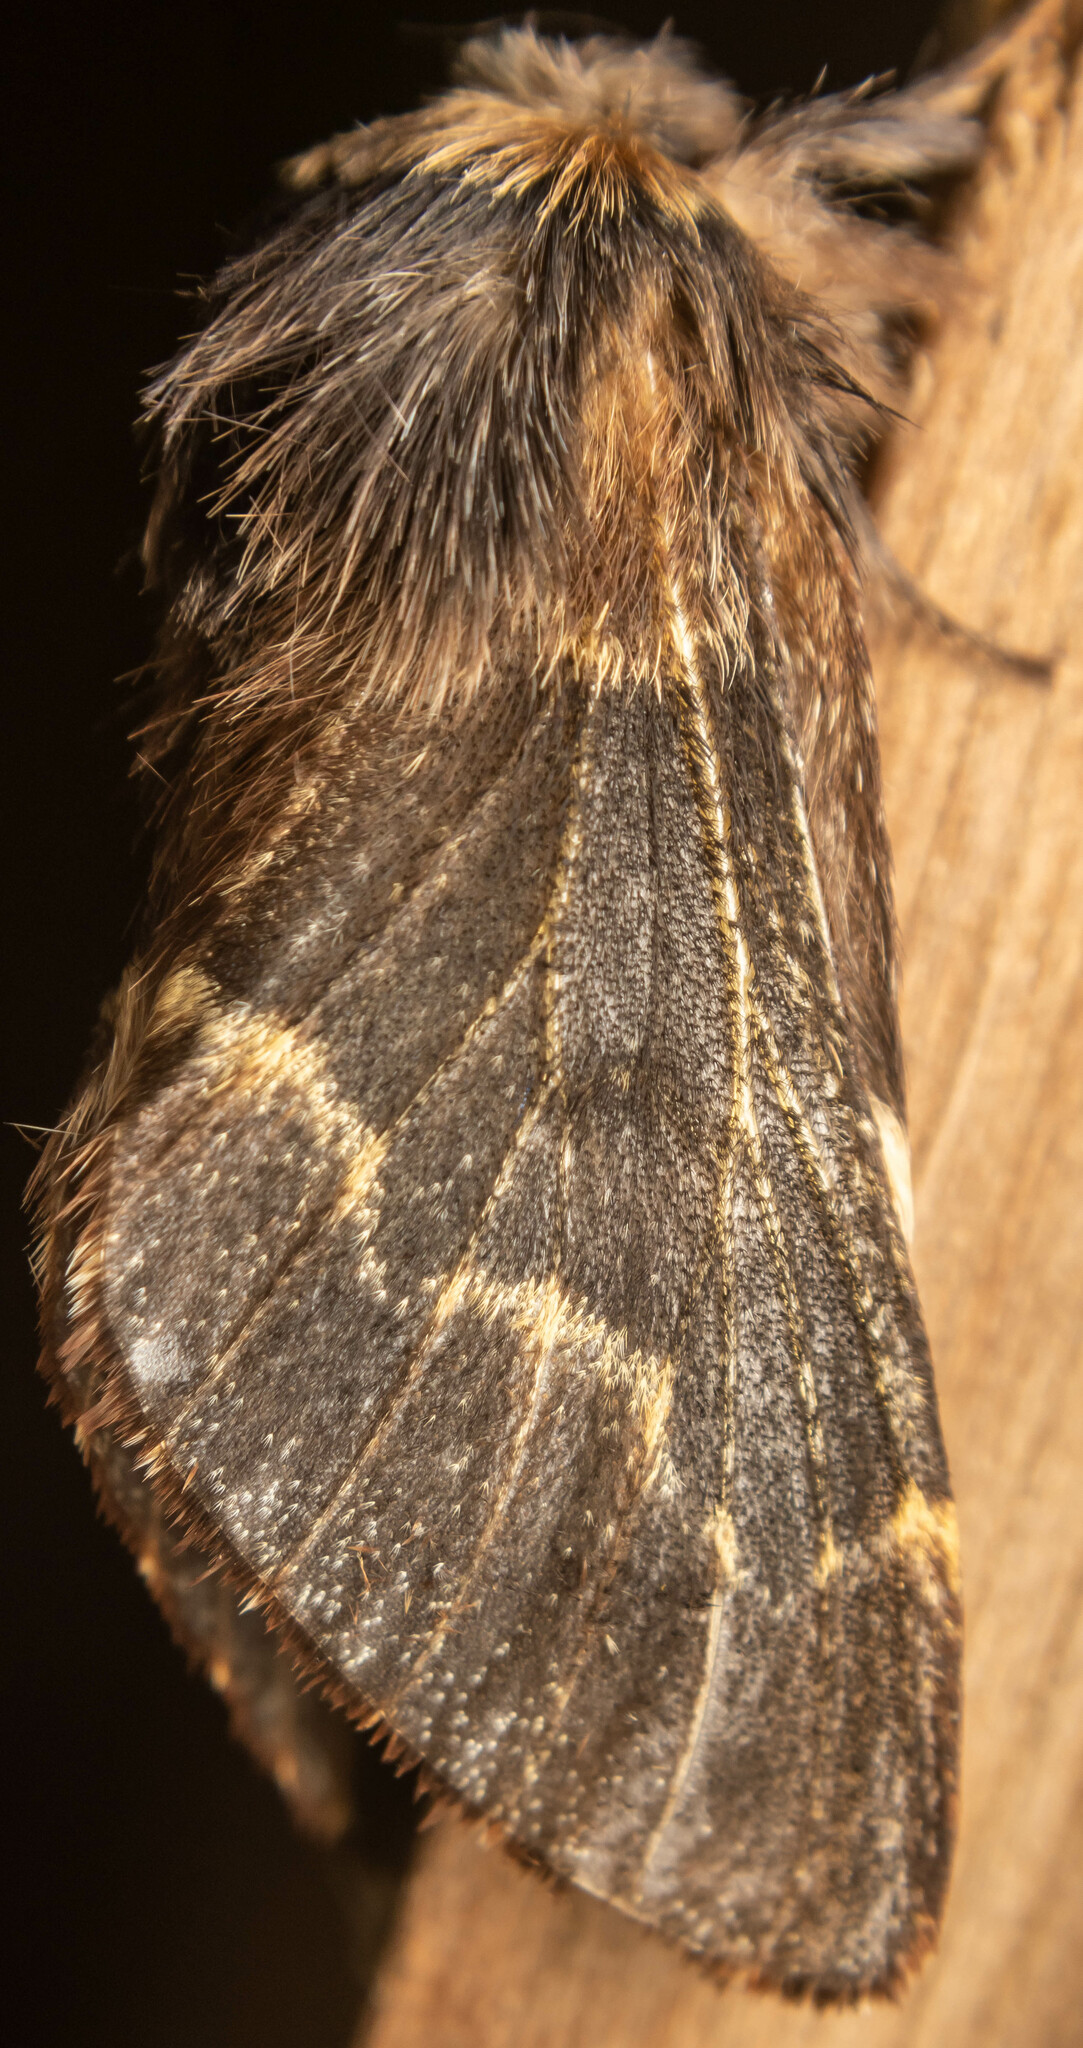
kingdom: Animalia
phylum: Arthropoda
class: Insecta
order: Lepidoptera
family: Lasiocampidae
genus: Poecilocampa
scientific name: Poecilocampa populi
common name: December moth
